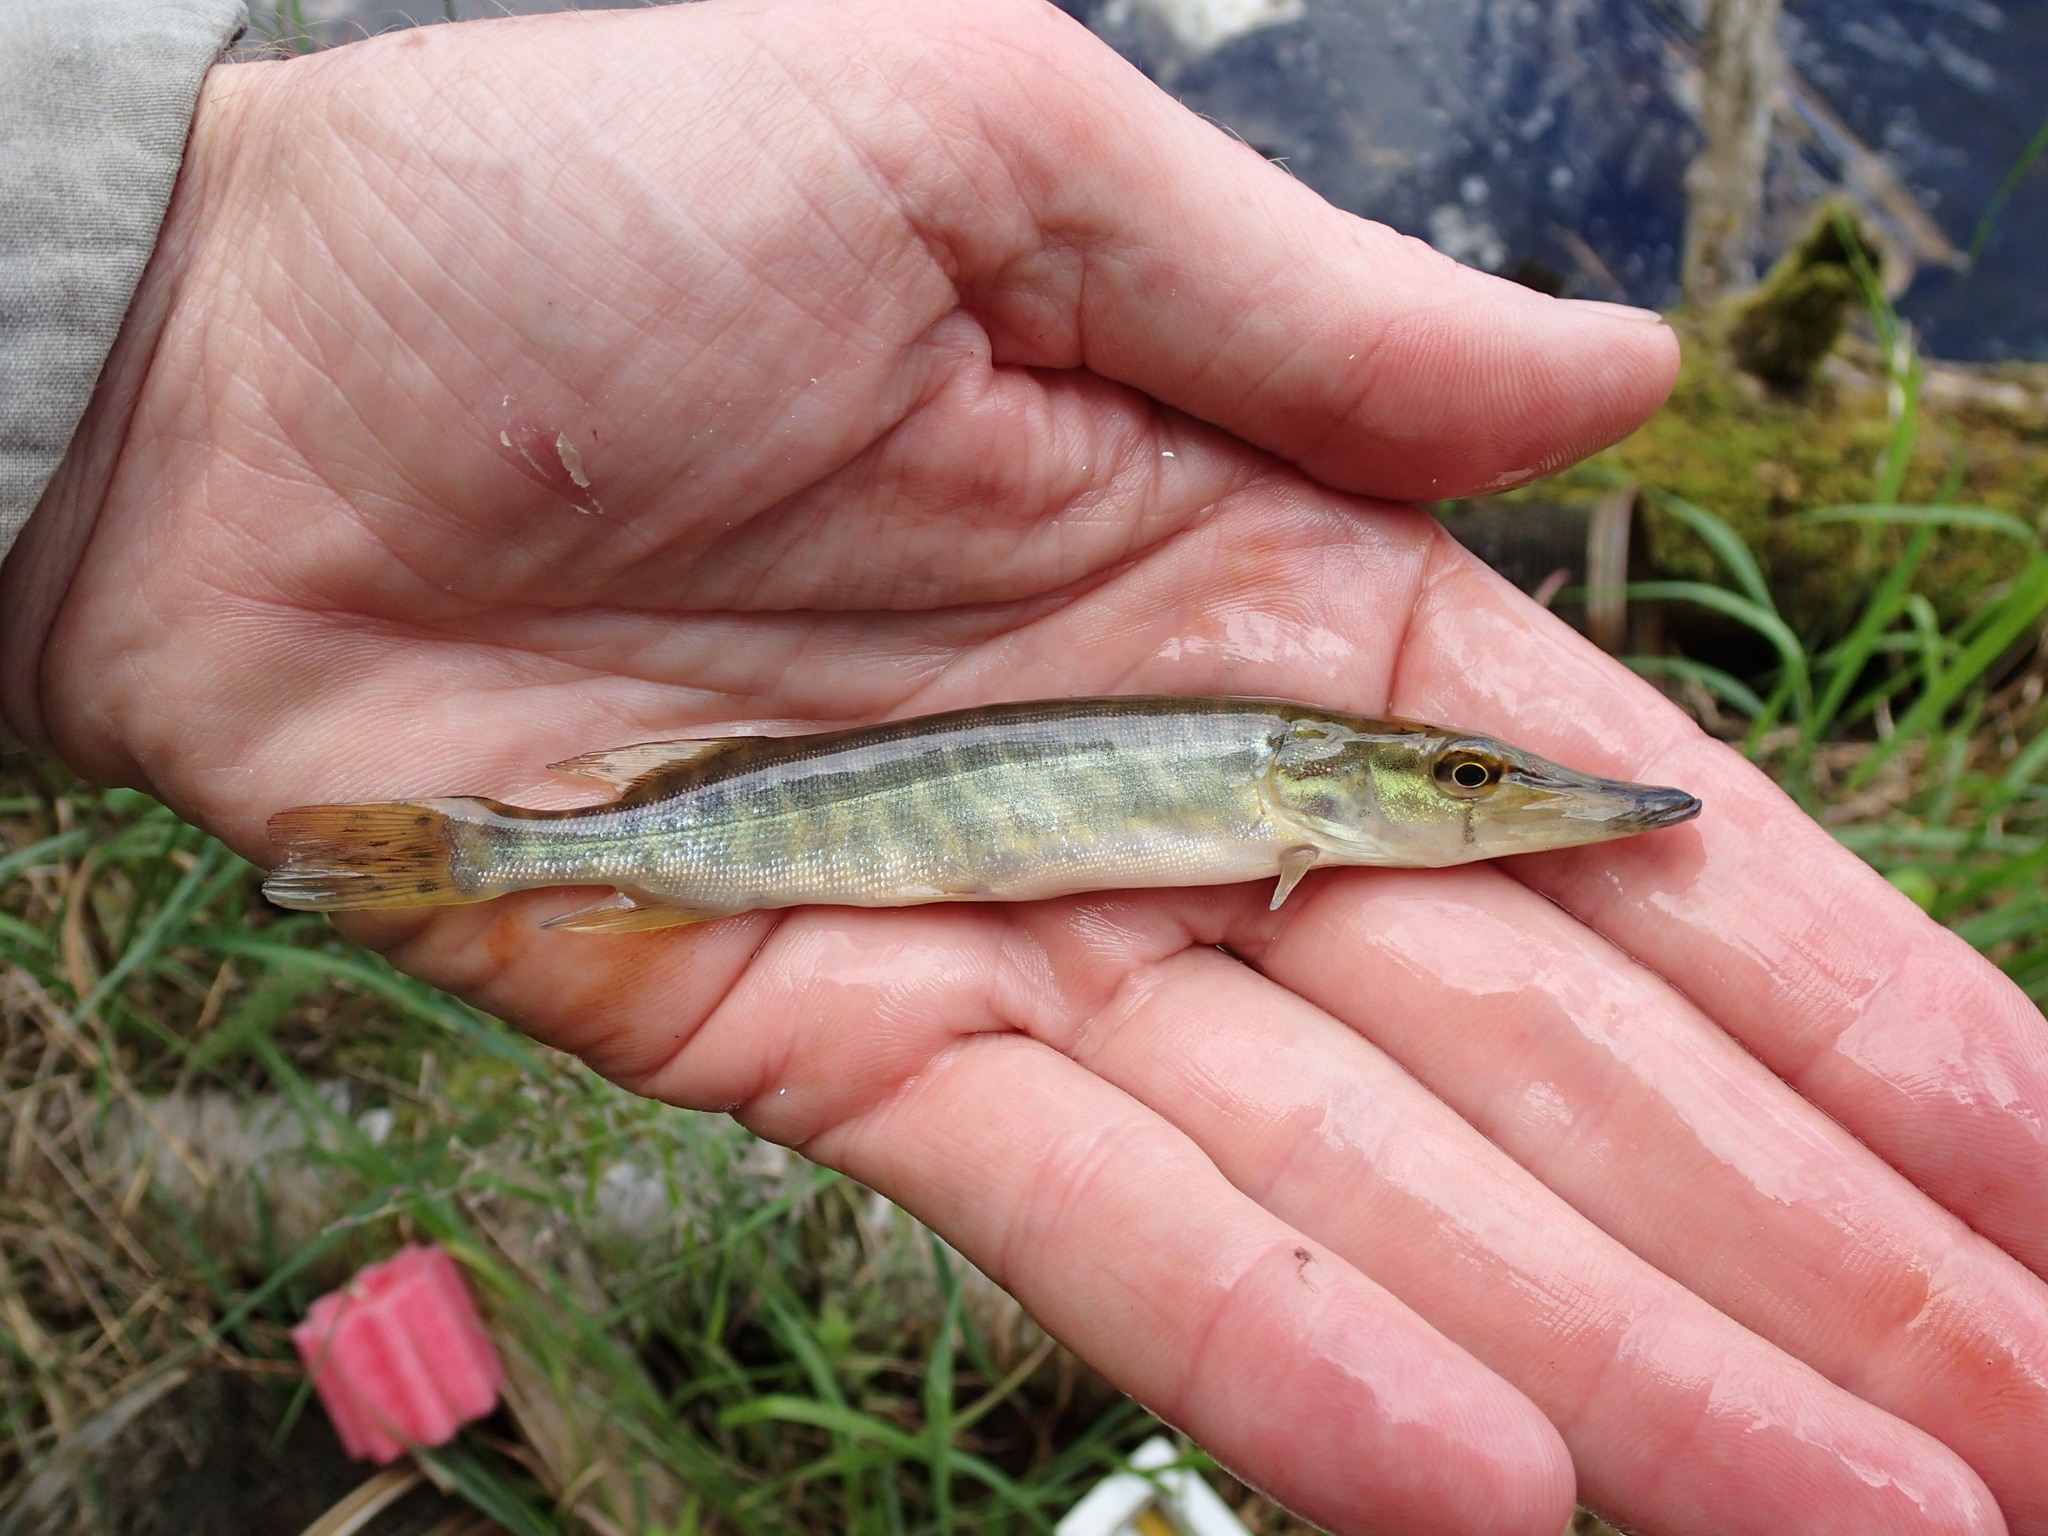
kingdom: Animalia
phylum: Chordata
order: Esociformes
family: Esocidae
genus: Esox
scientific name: Esox lucius
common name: Northern pike
